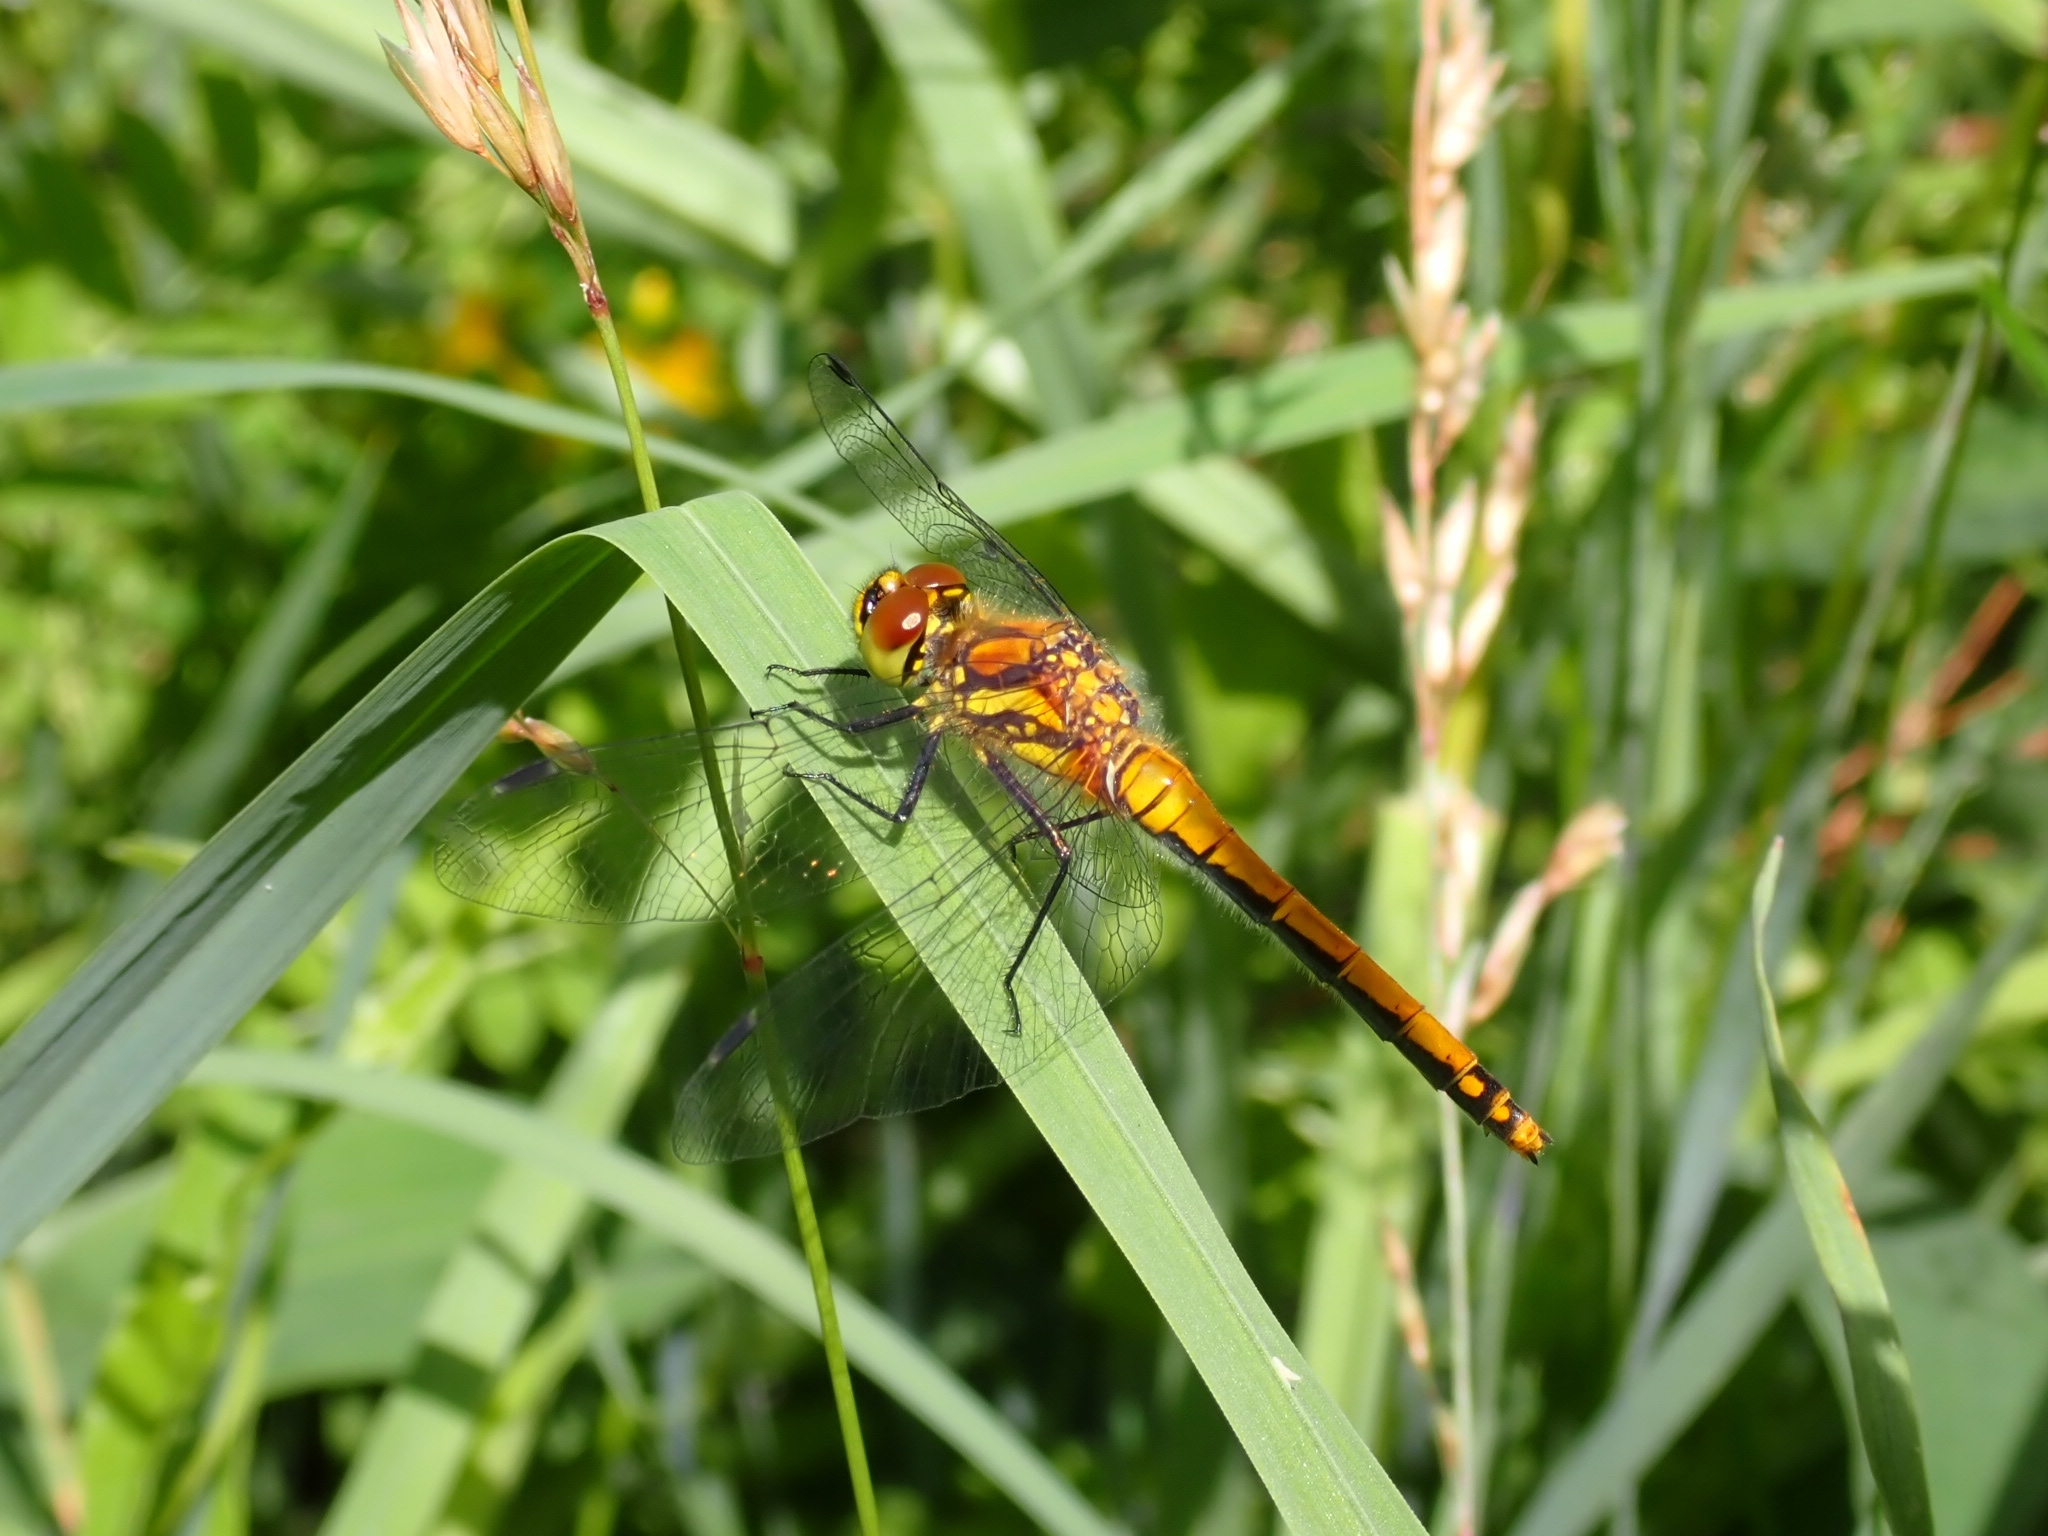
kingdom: Animalia
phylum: Arthropoda
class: Insecta
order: Odonata
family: Libellulidae
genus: Sympetrum
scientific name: Sympetrum sanguineum
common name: Ruddy darter
